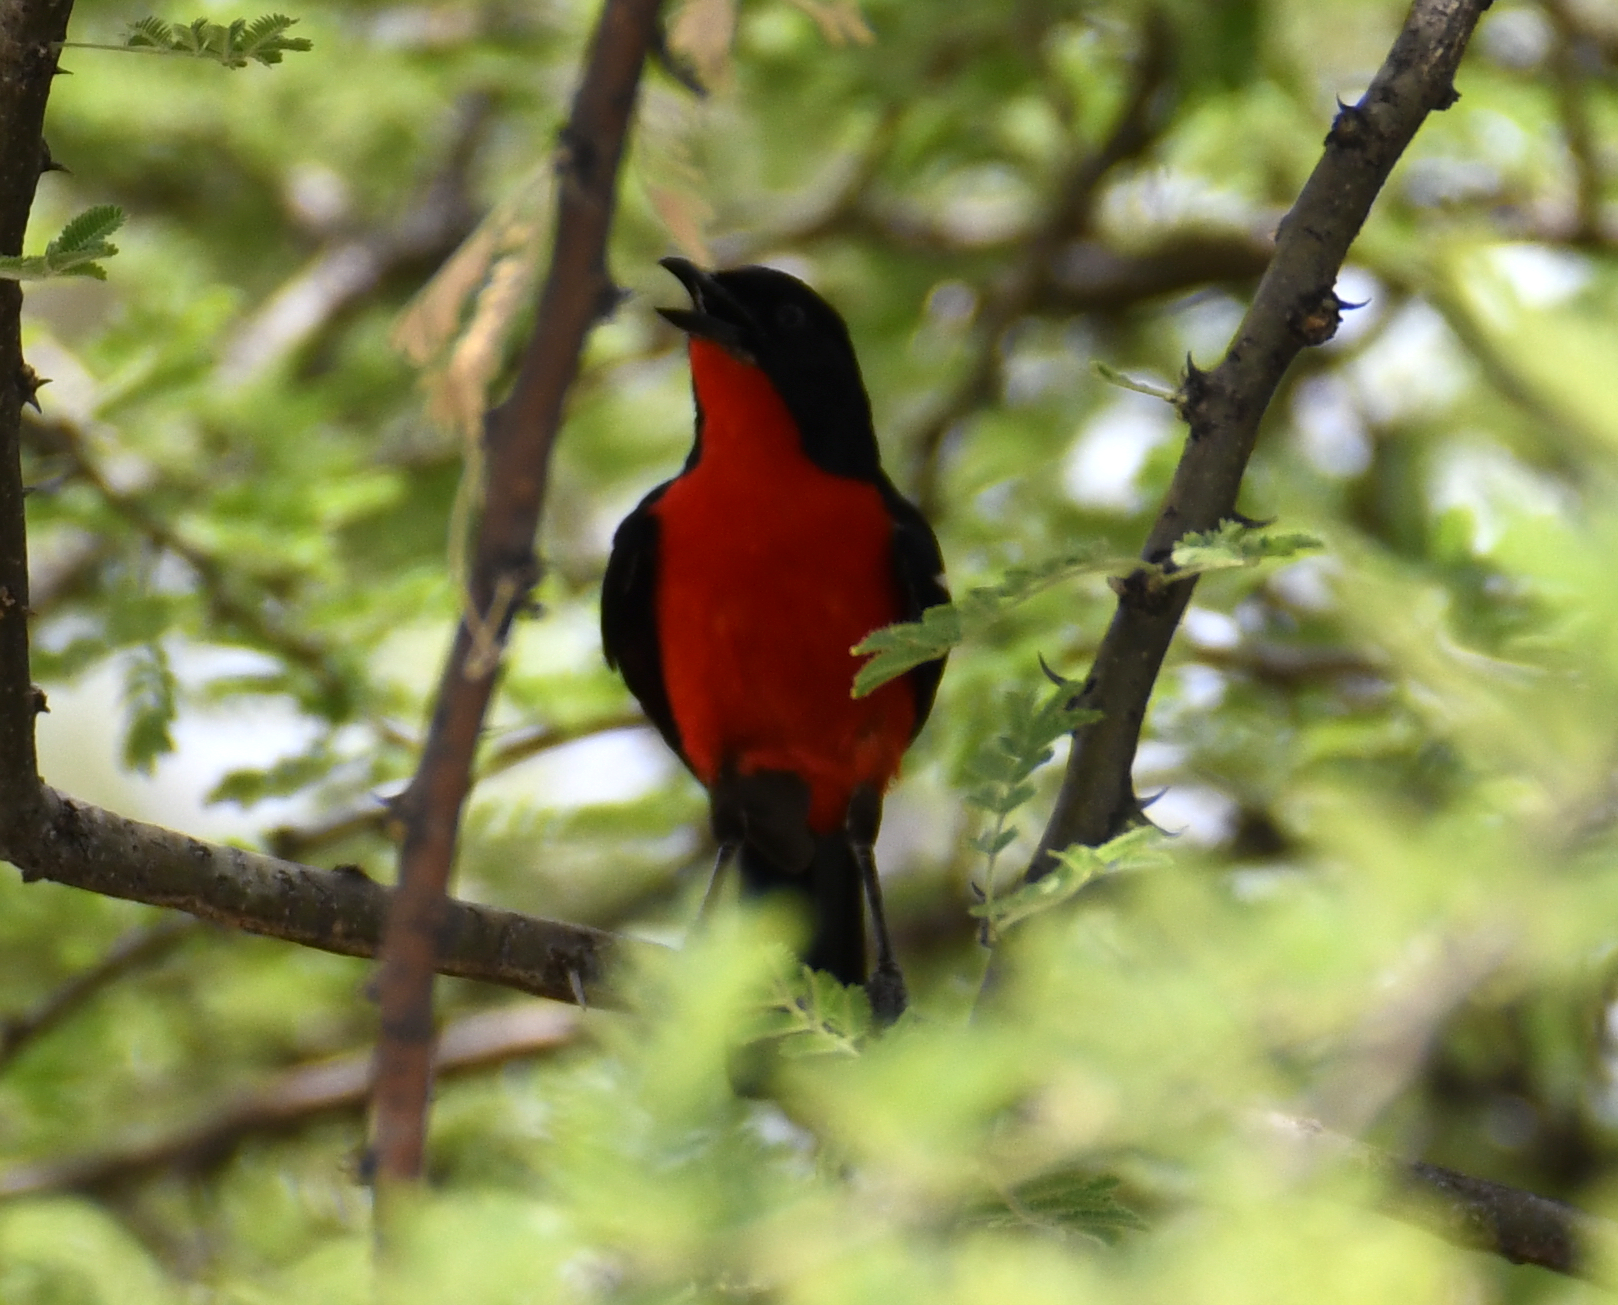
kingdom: Animalia
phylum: Chordata
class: Aves
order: Passeriformes
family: Malaconotidae
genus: Laniarius
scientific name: Laniarius atrococcineus
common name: Crimson-breasted shrike
